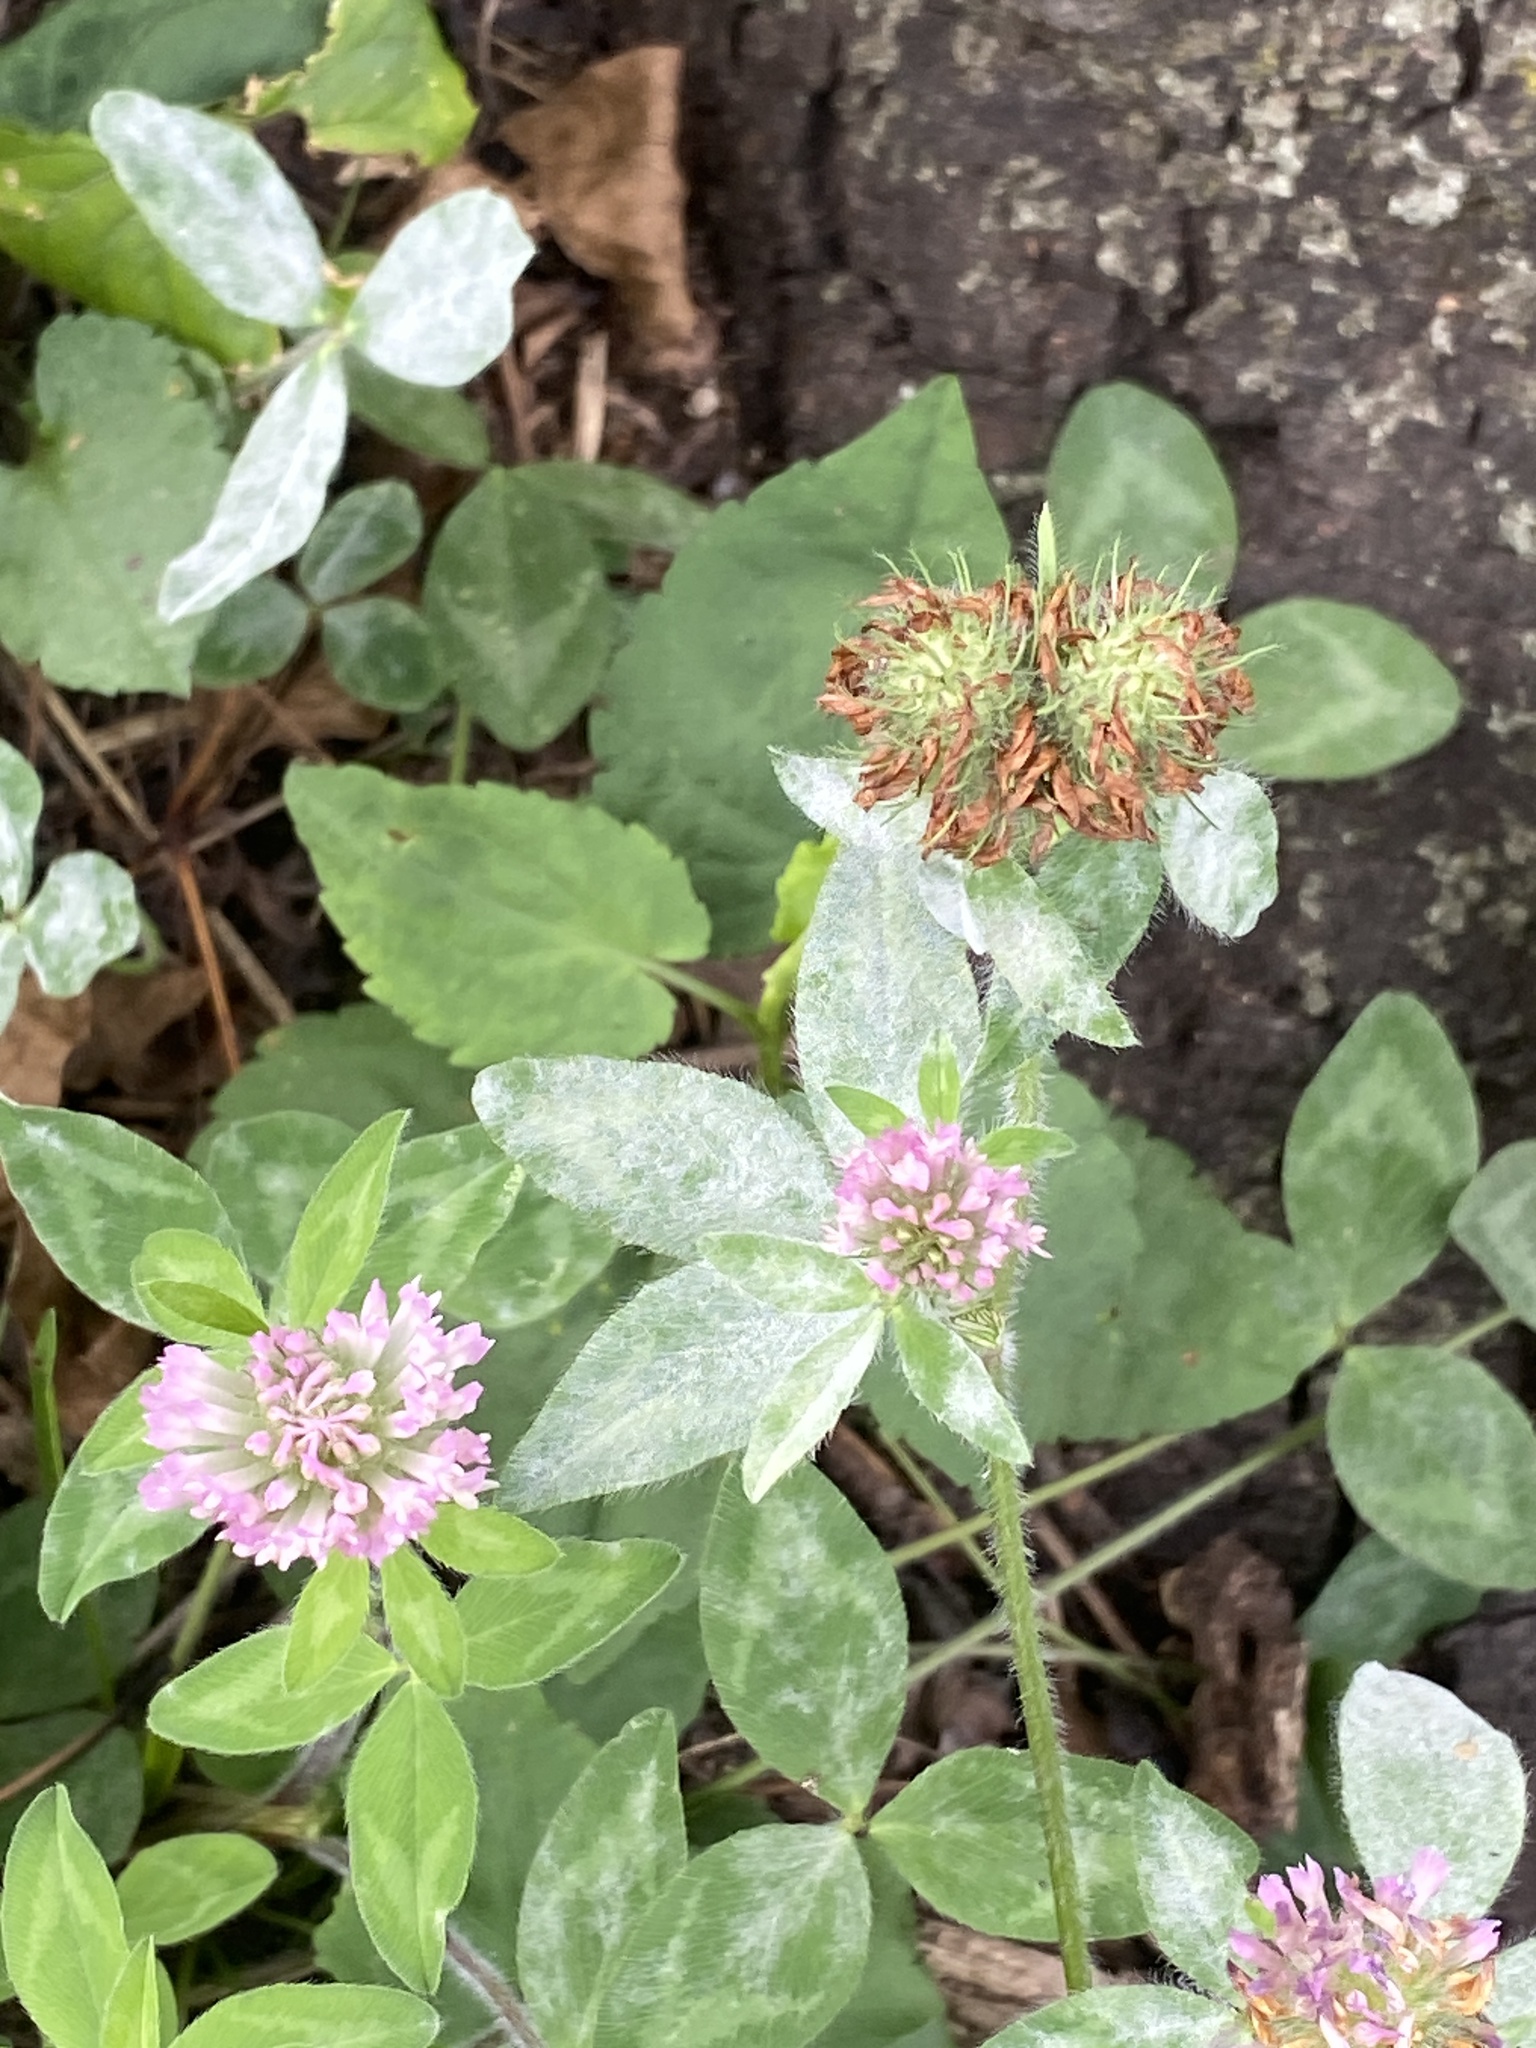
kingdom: Plantae
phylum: Tracheophyta
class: Magnoliopsida
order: Fabales
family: Fabaceae
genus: Trifolium
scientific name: Trifolium pratense
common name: Red clover
